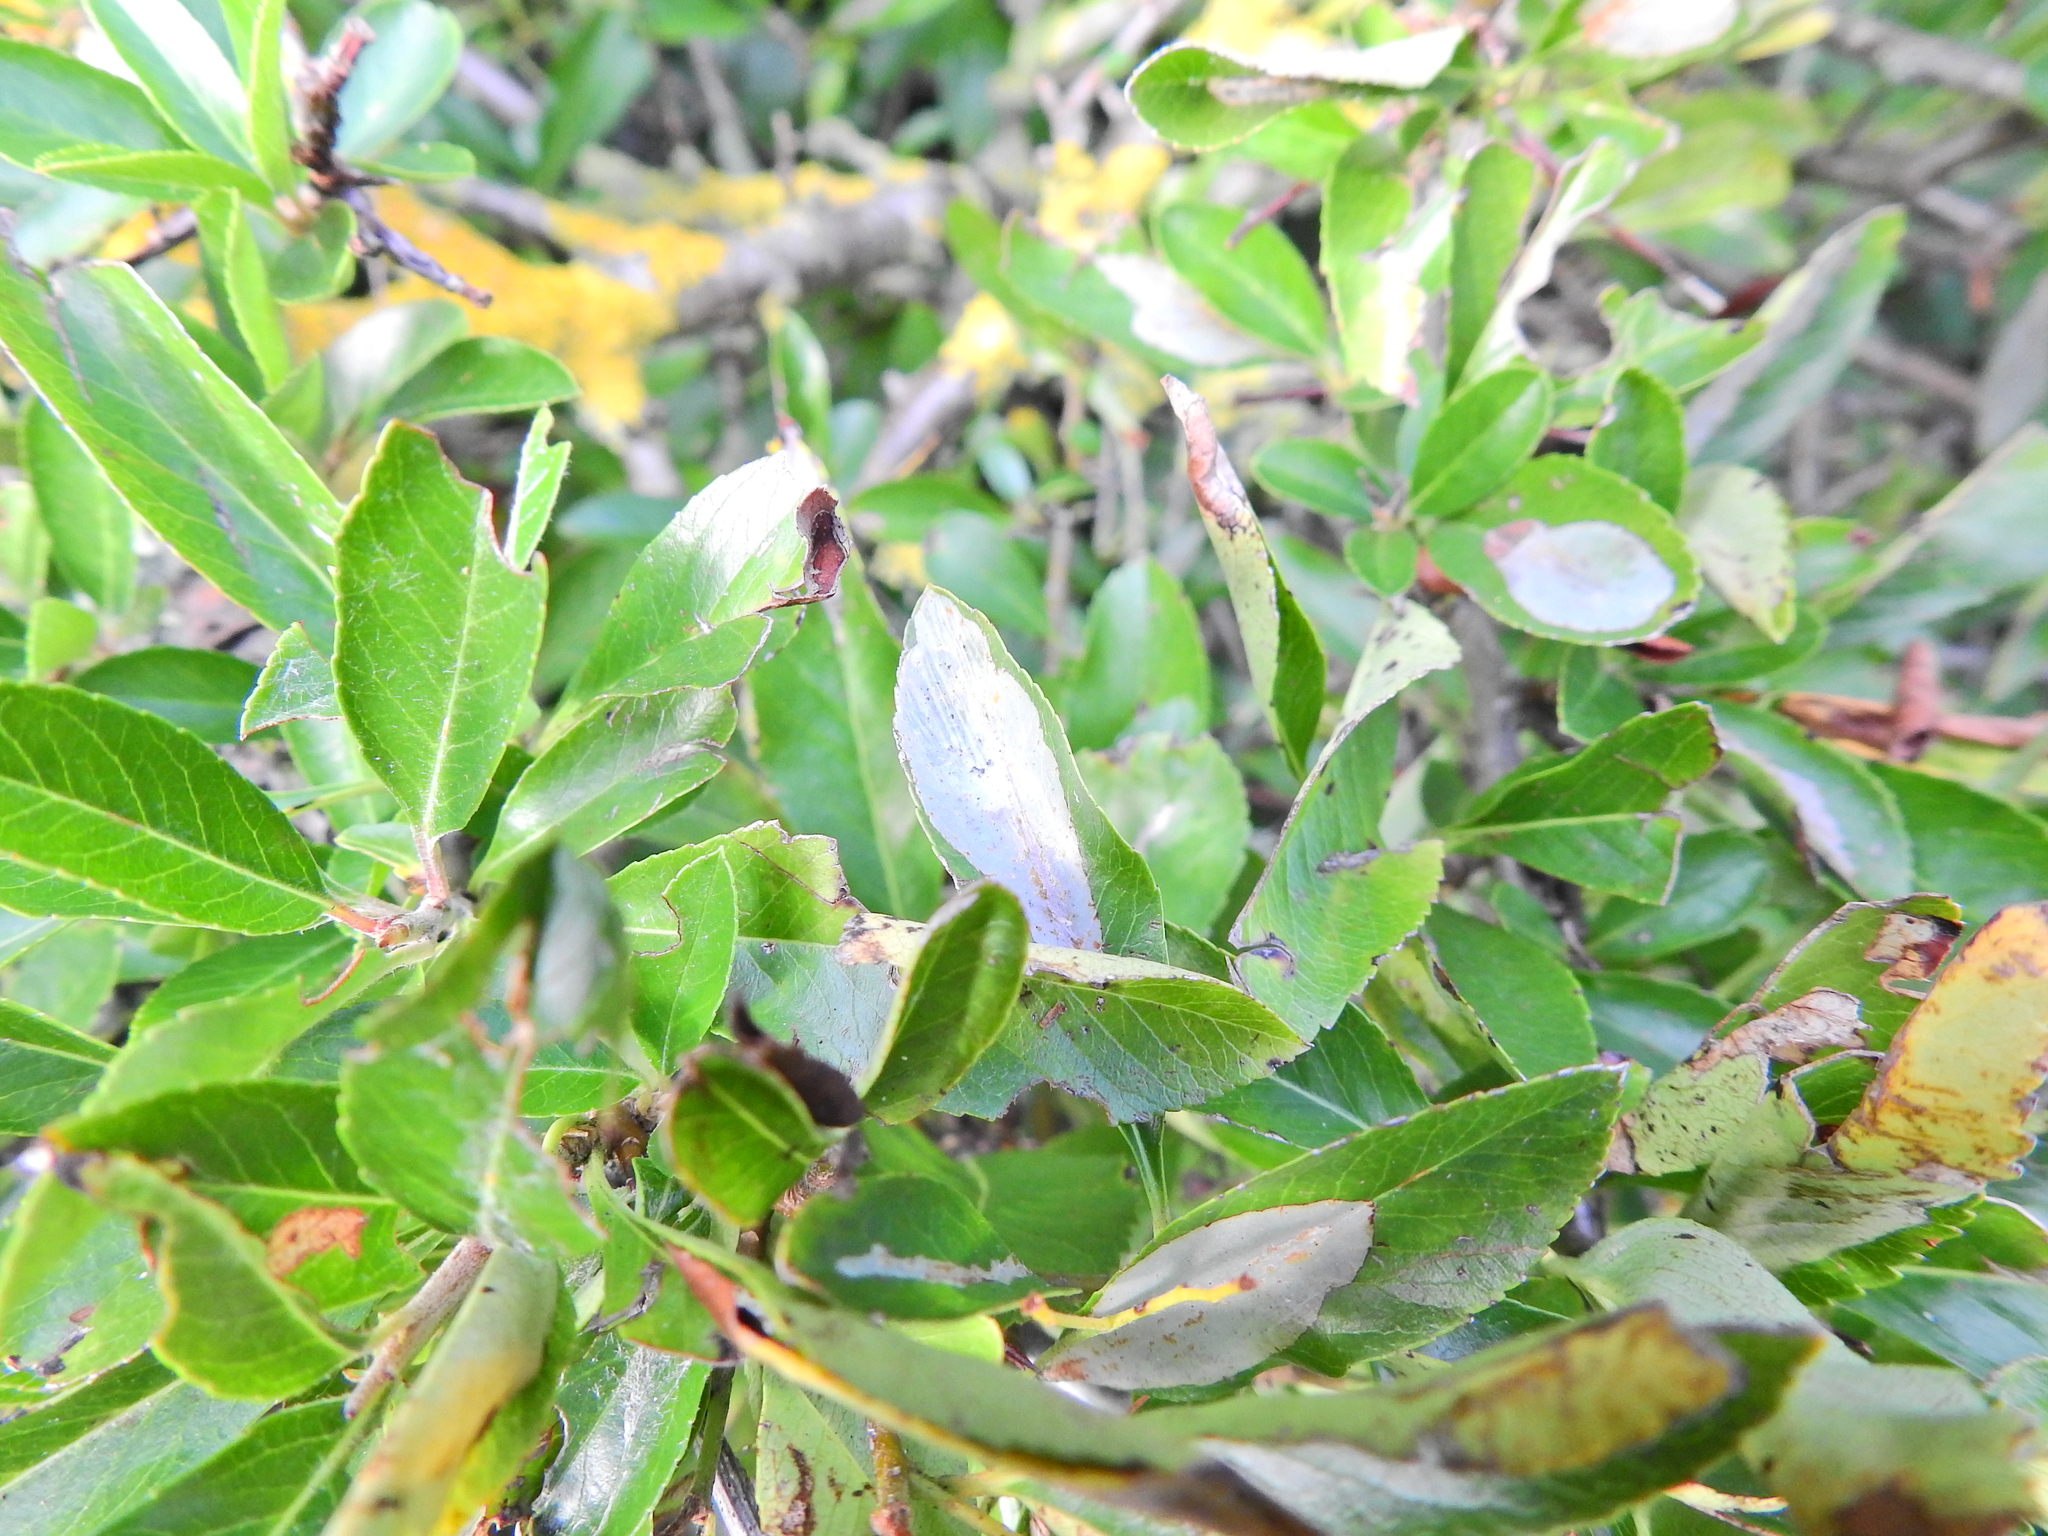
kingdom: Plantae
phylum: Tracheophyta
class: Magnoliopsida
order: Rosales
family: Rosaceae
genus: Pyracantha
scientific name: Pyracantha coccinea
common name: Firethorn
